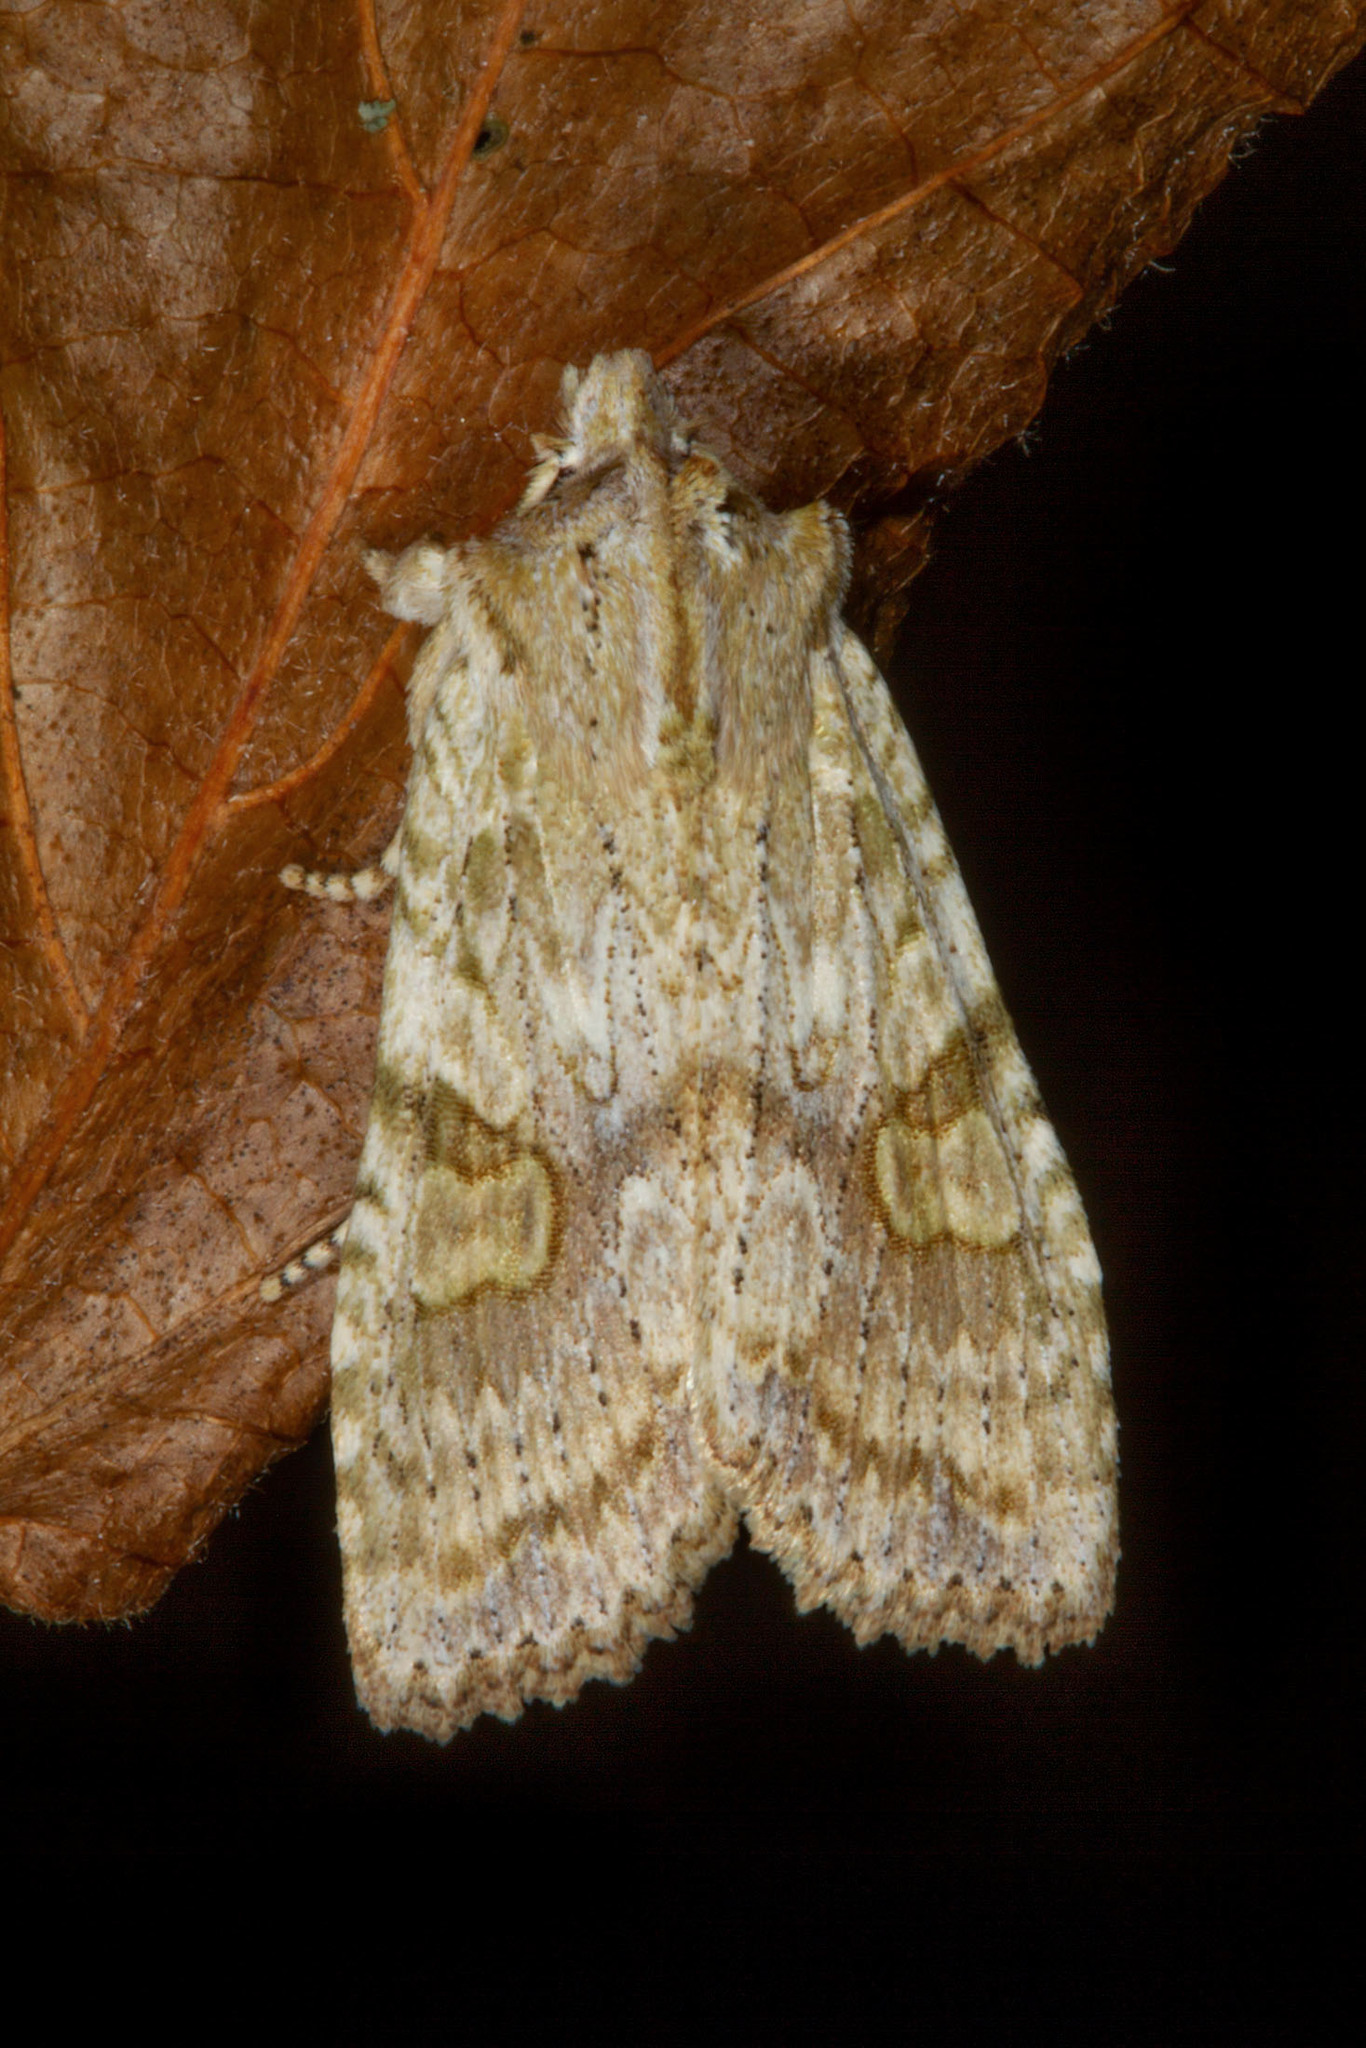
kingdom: Animalia
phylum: Arthropoda
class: Insecta
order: Lepidoptera
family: Noctuidae
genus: Lithophane
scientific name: Lithophane bethunei
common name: Bethune's pinion moth
